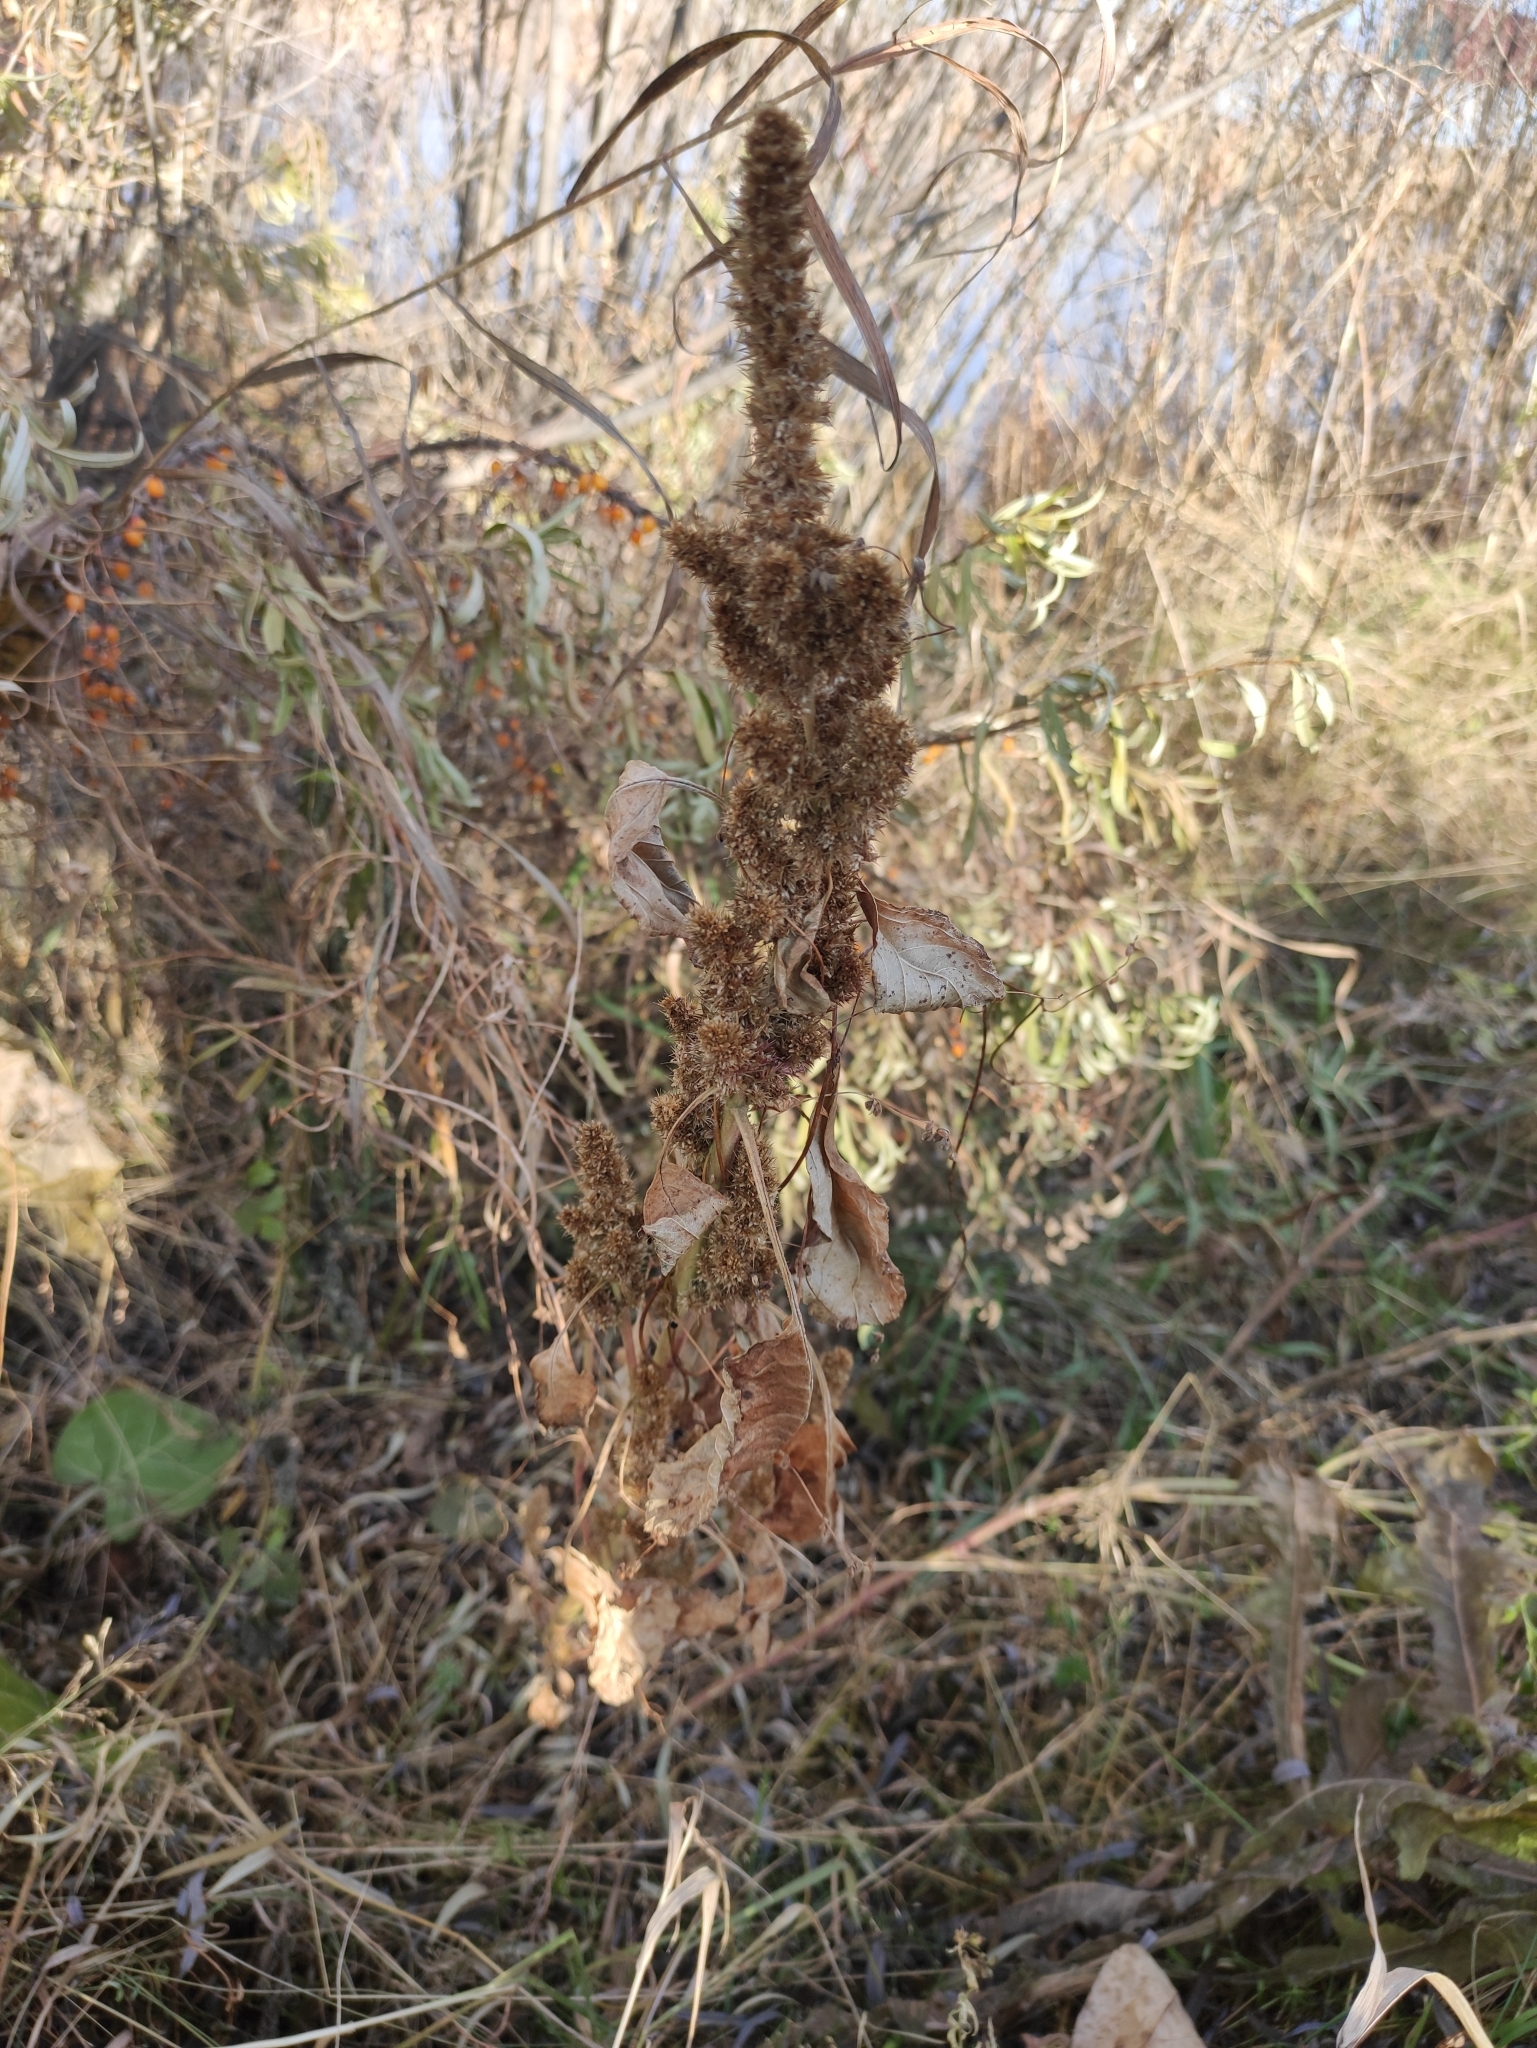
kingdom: Plantae
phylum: Tracheophyta
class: Magnoliopsida
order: Caryophyllales
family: Amaranthaceae
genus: Amaranthus
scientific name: Amaranthus retroflexus
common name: Redroot amaranth
